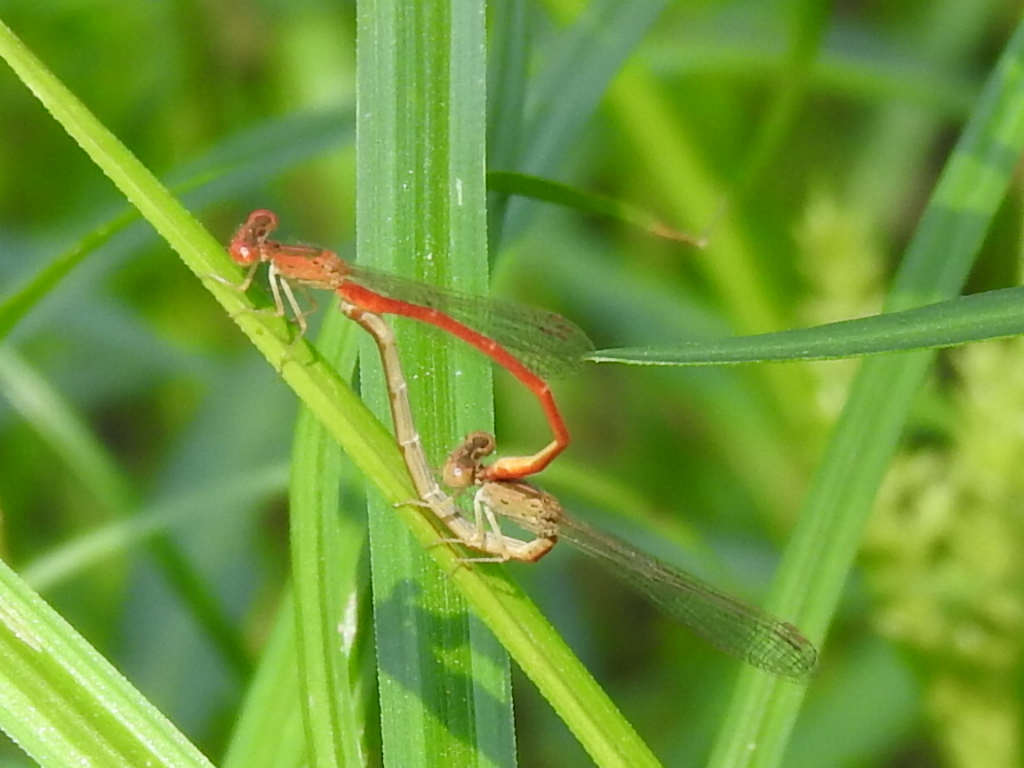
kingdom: Animalia
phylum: Arthropoda
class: Insecta
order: Odonata
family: Coenagrionidae
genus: Telebasis
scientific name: Telebasis salva
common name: Desert firetail
